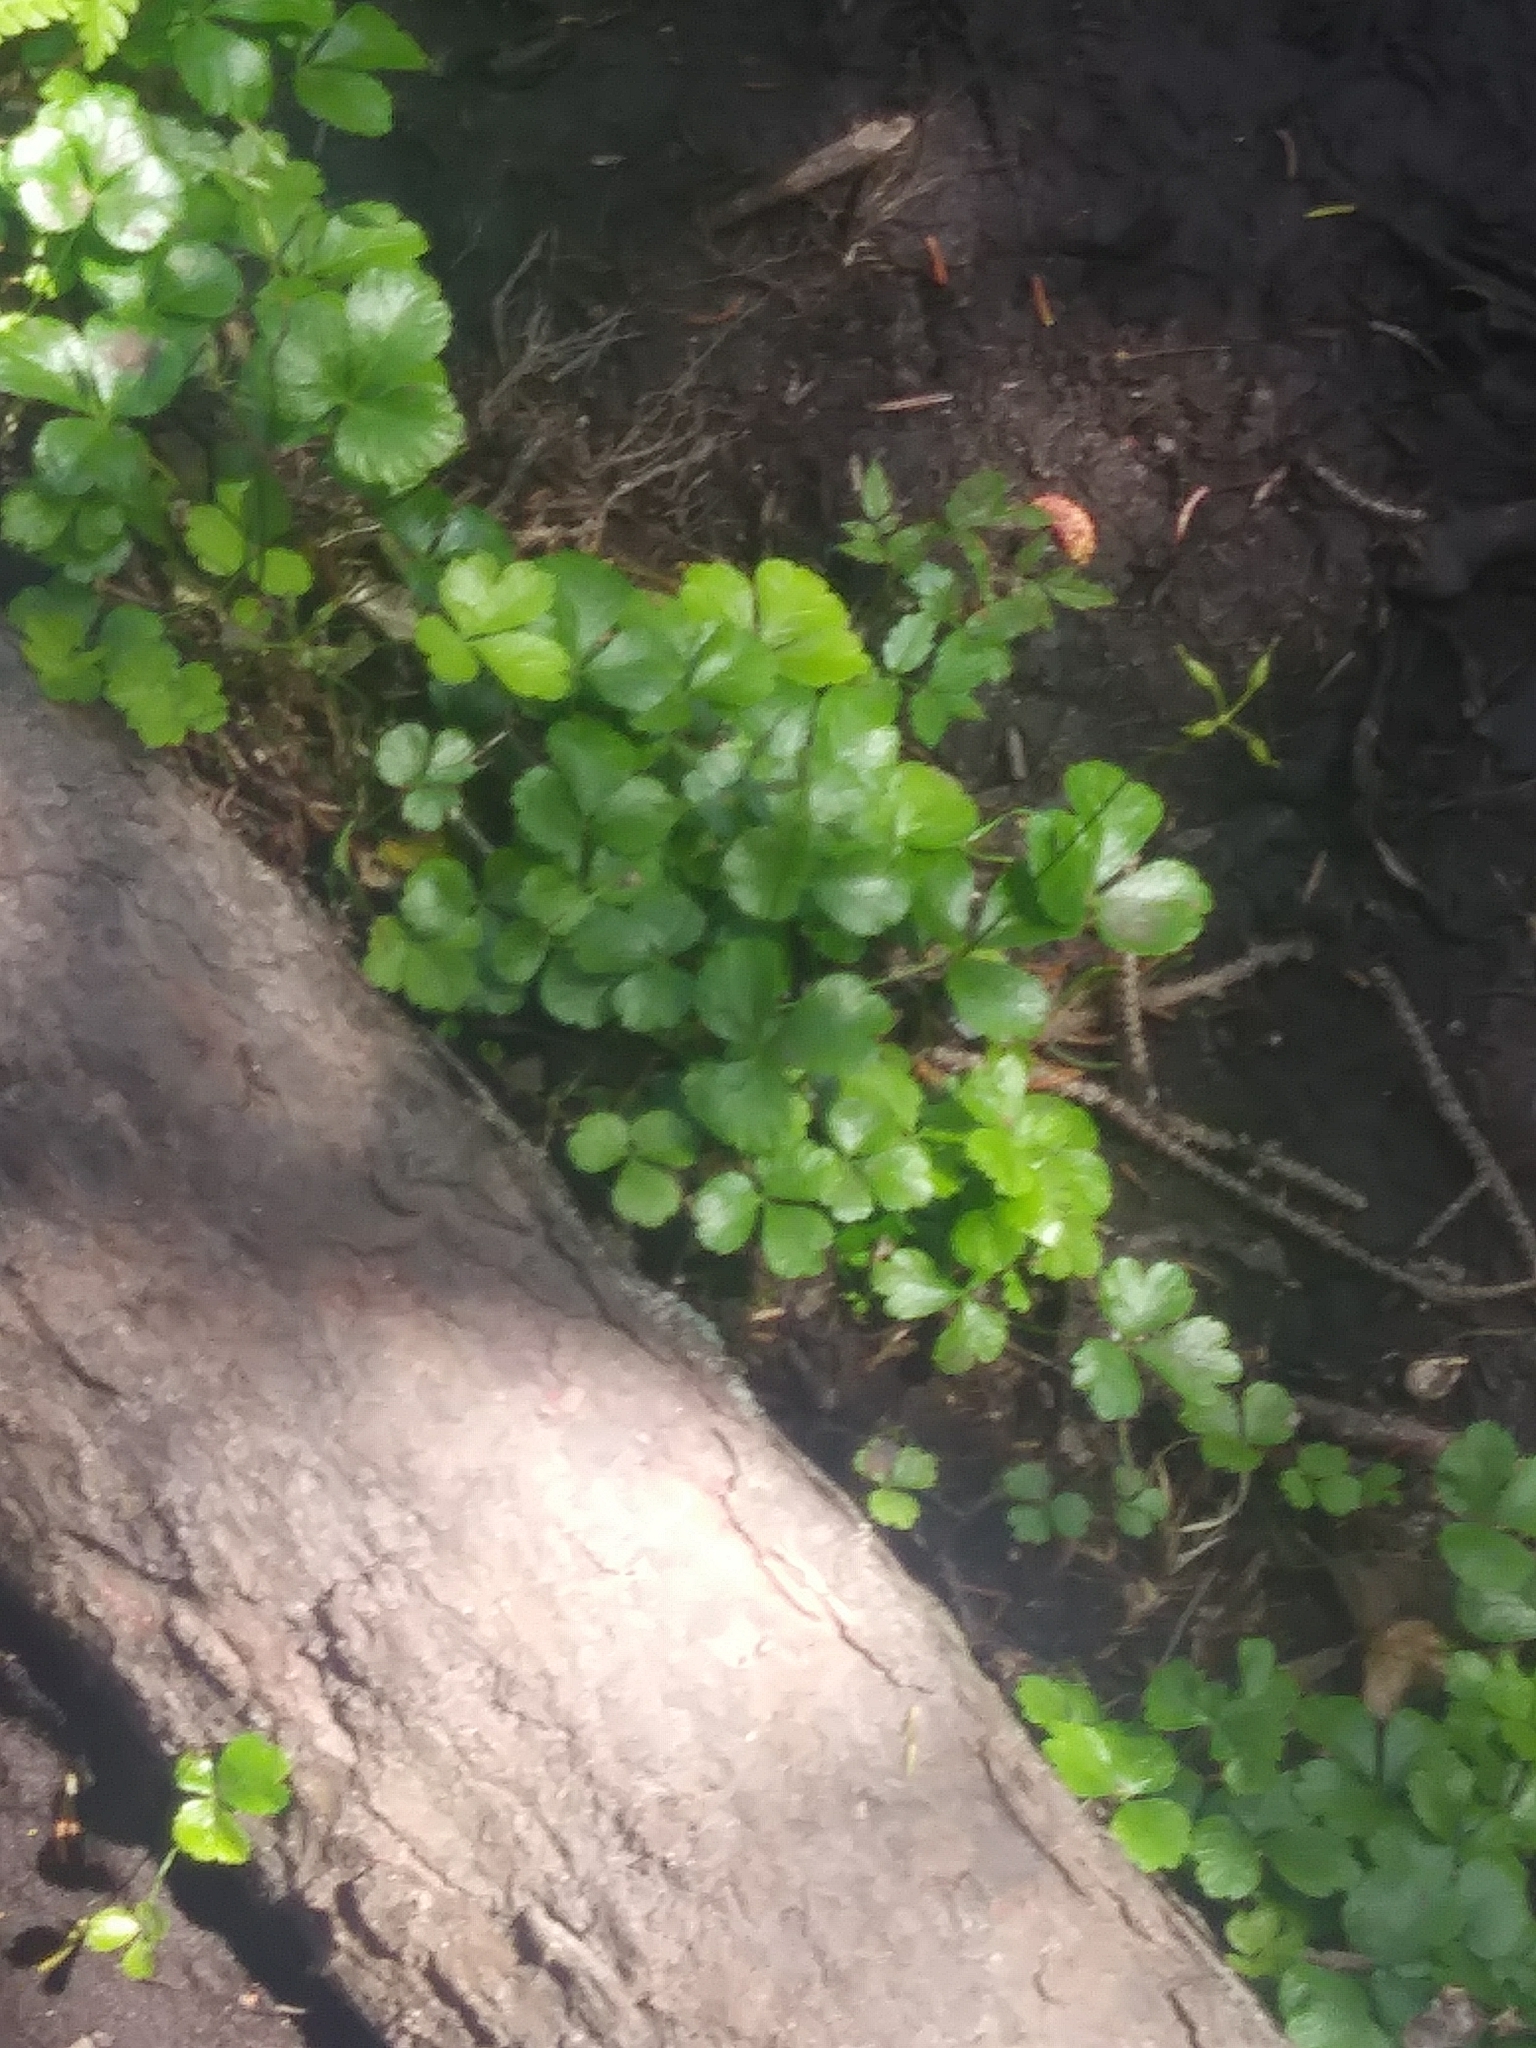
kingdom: Plantae
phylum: Tracheophyta
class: Magnoliopsida
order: Ranunculales
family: Ranunculaceae
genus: Coptis
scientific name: Coptis trifolia
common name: Canker-root
